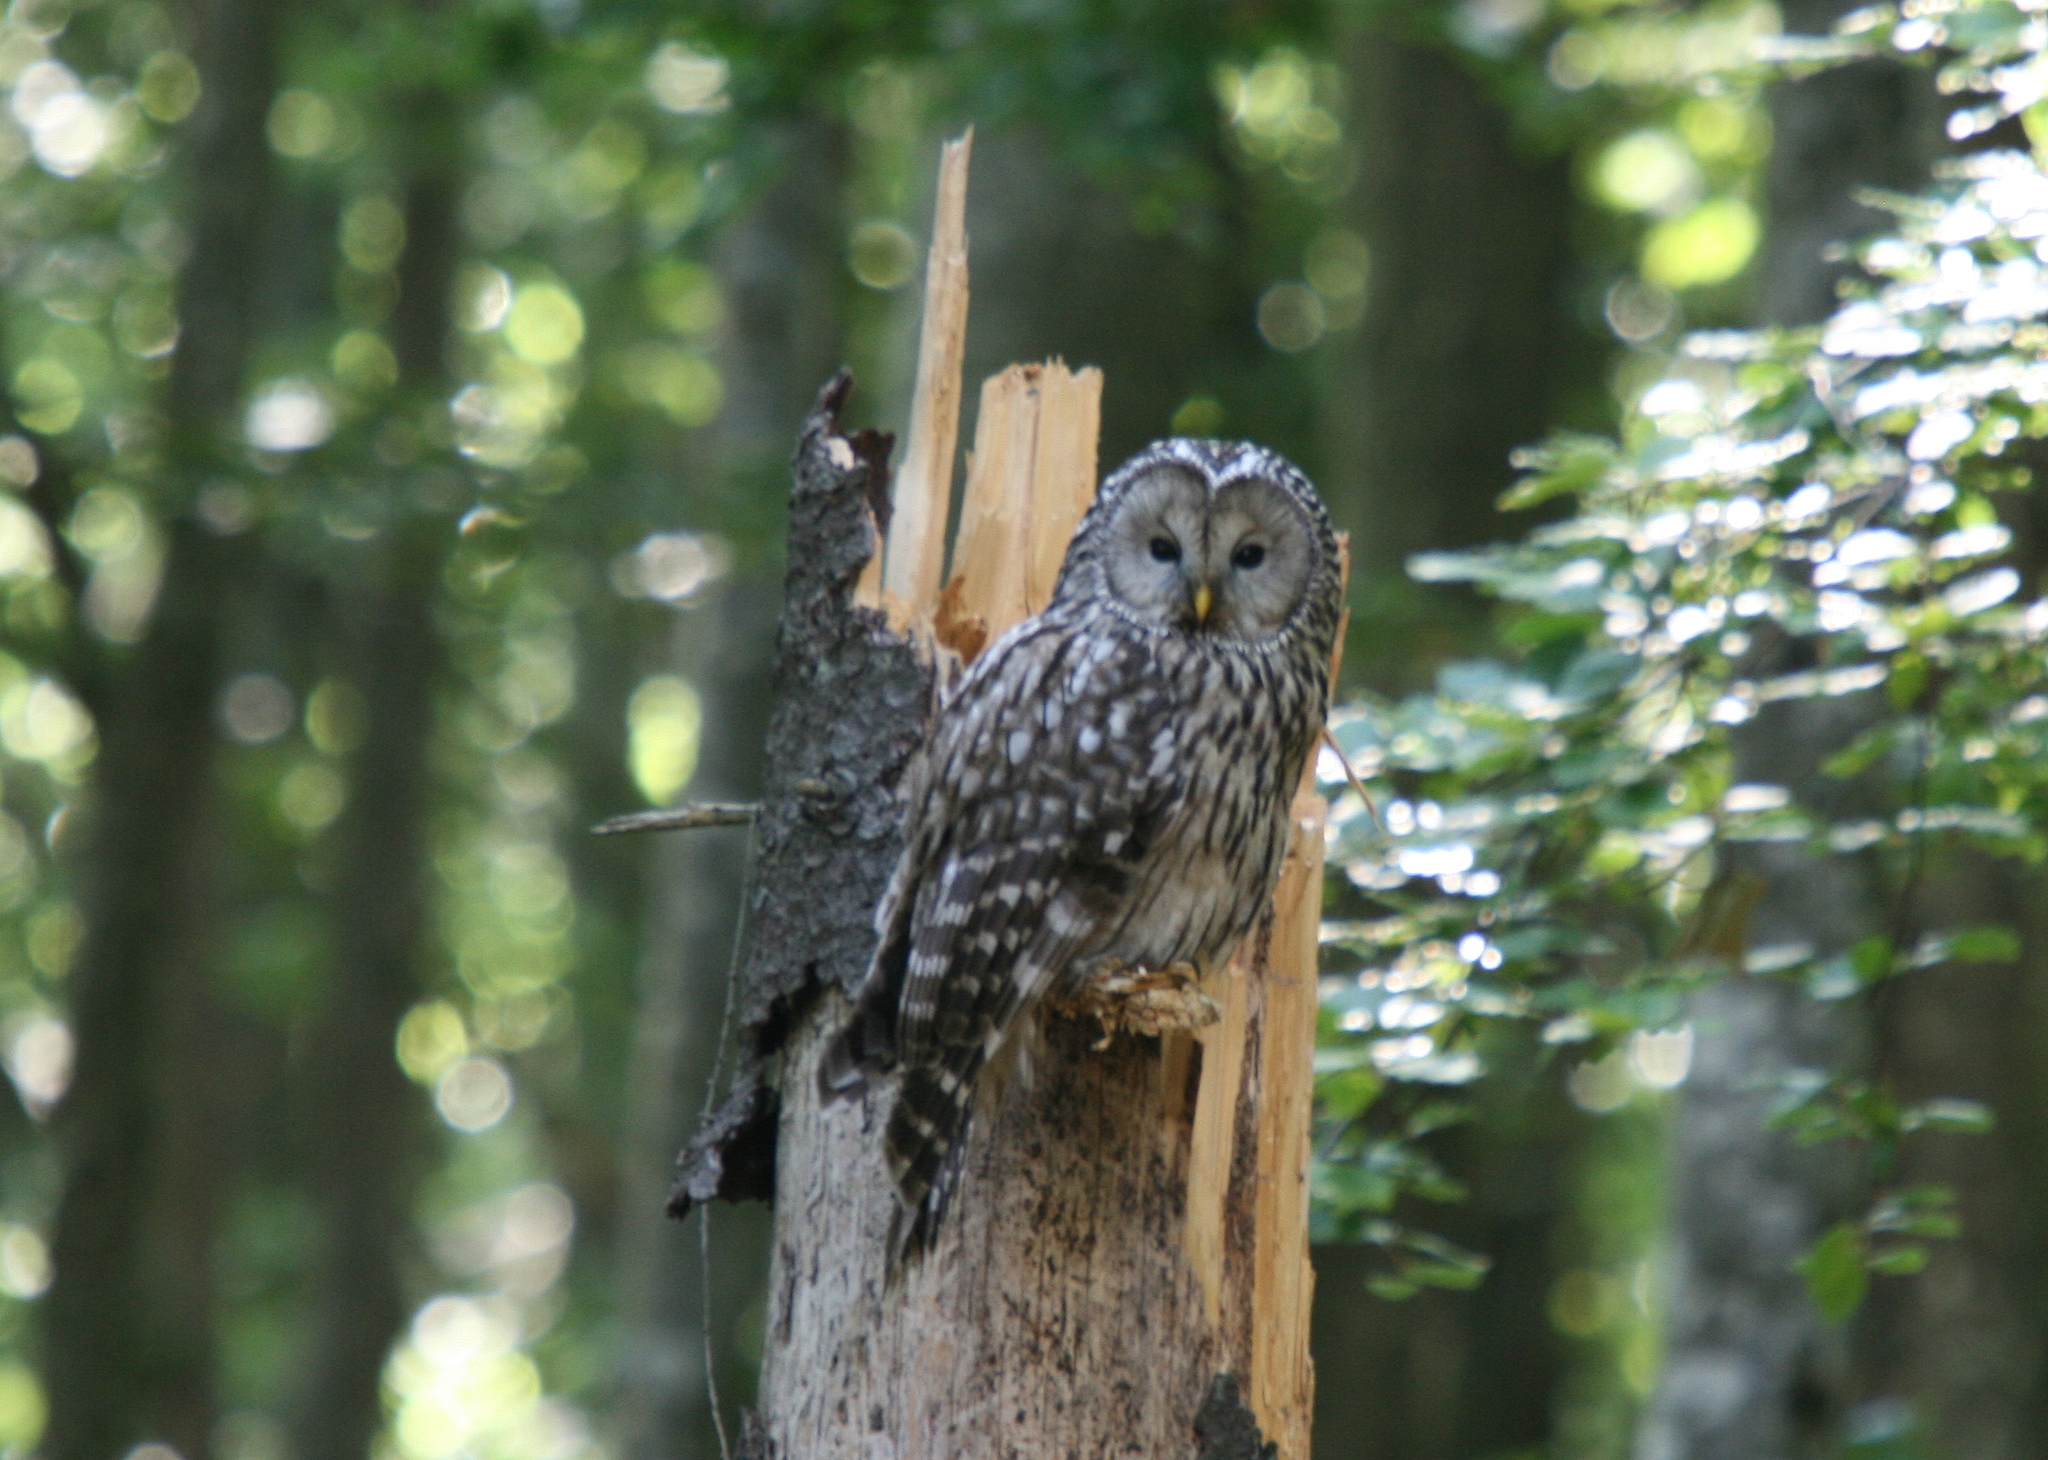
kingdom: Animalia
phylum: Chordata
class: Aves
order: Strigiformes
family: Strigidae
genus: Strix
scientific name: Strix uralensis
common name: Ural owl
